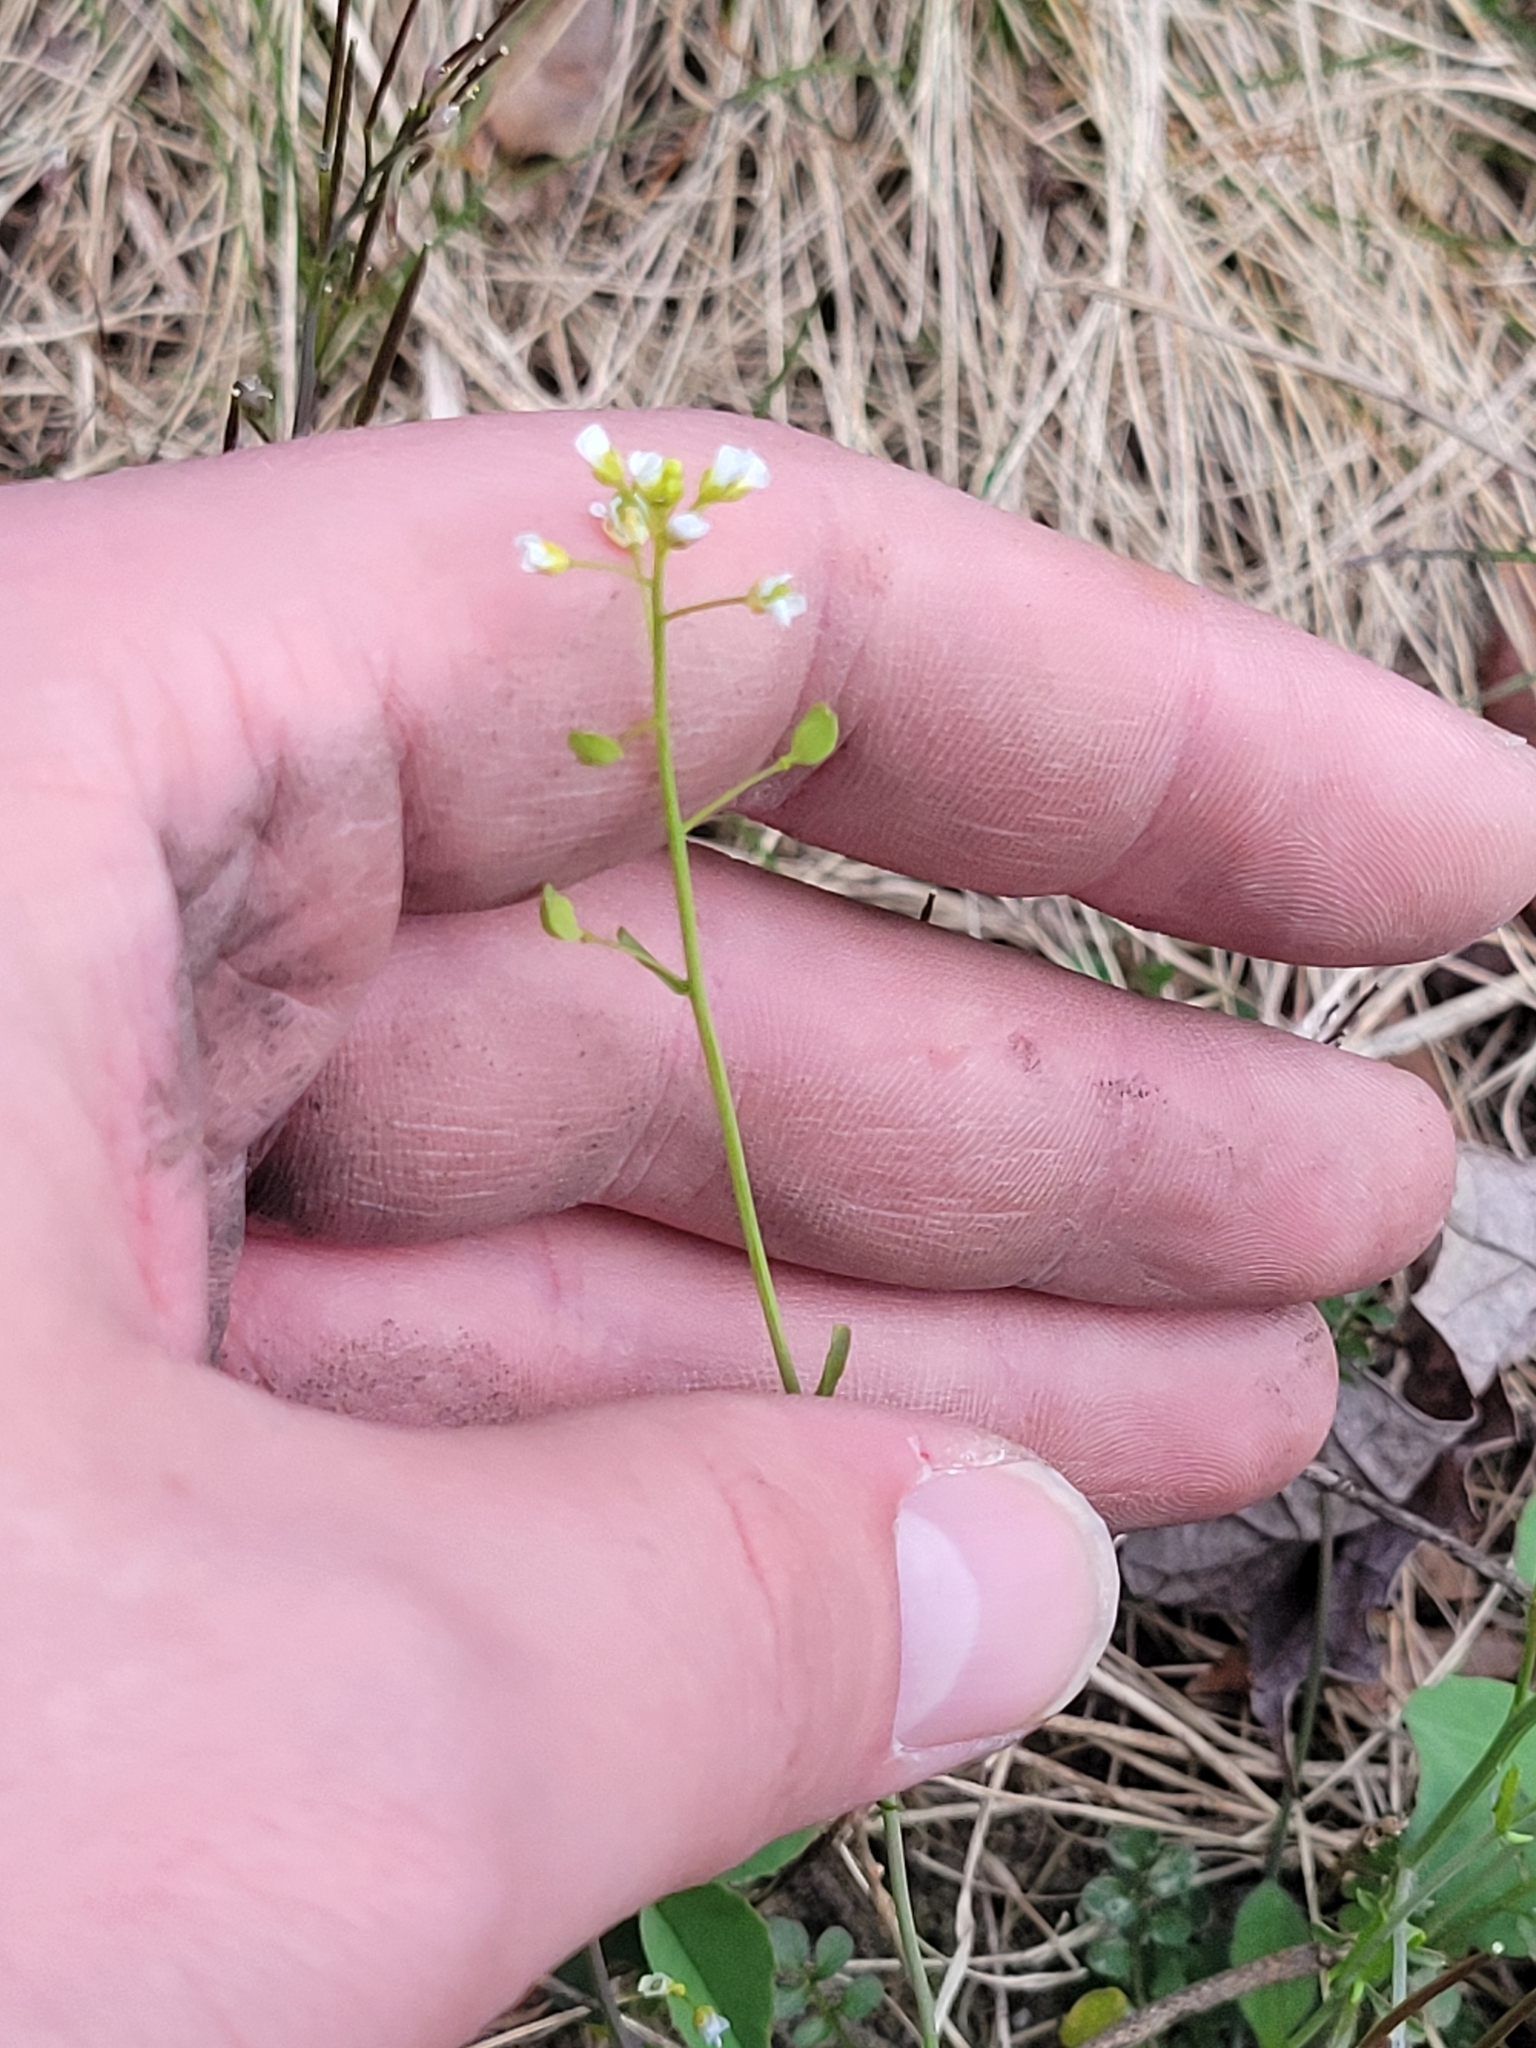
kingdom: Plantae
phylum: Tracheophyta
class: Magnoliopsida
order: Brassicales
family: Brassicaceae
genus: Mummenhoffia
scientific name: Mummenhoffia alliacea
